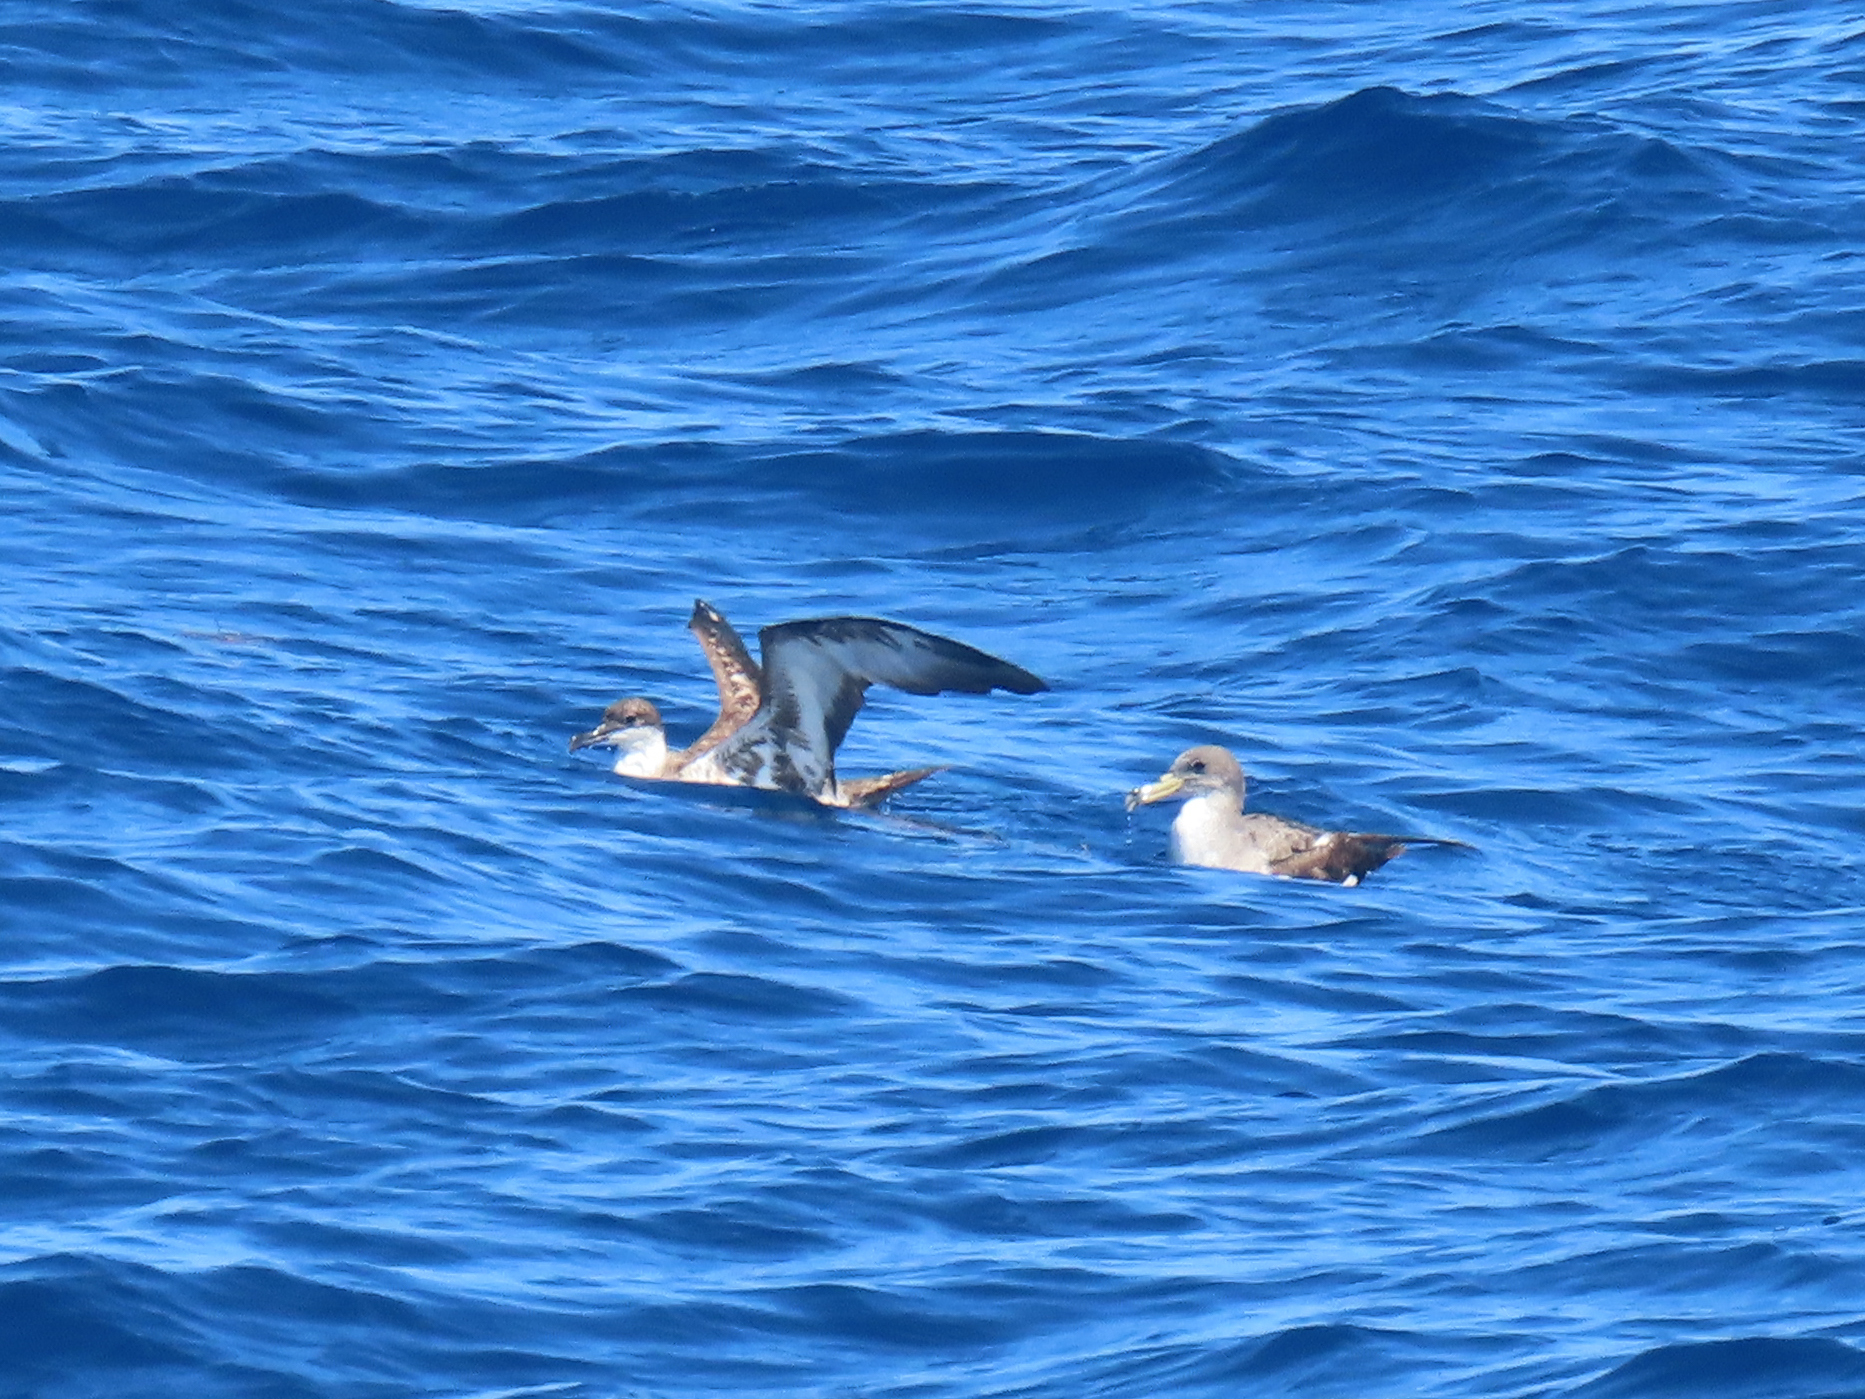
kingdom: Animalia
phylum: Chordata
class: Aves
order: Procellariiformes
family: Procellariidae
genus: Calonectris
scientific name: Calonectris diomedea
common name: Cory's shearwater
